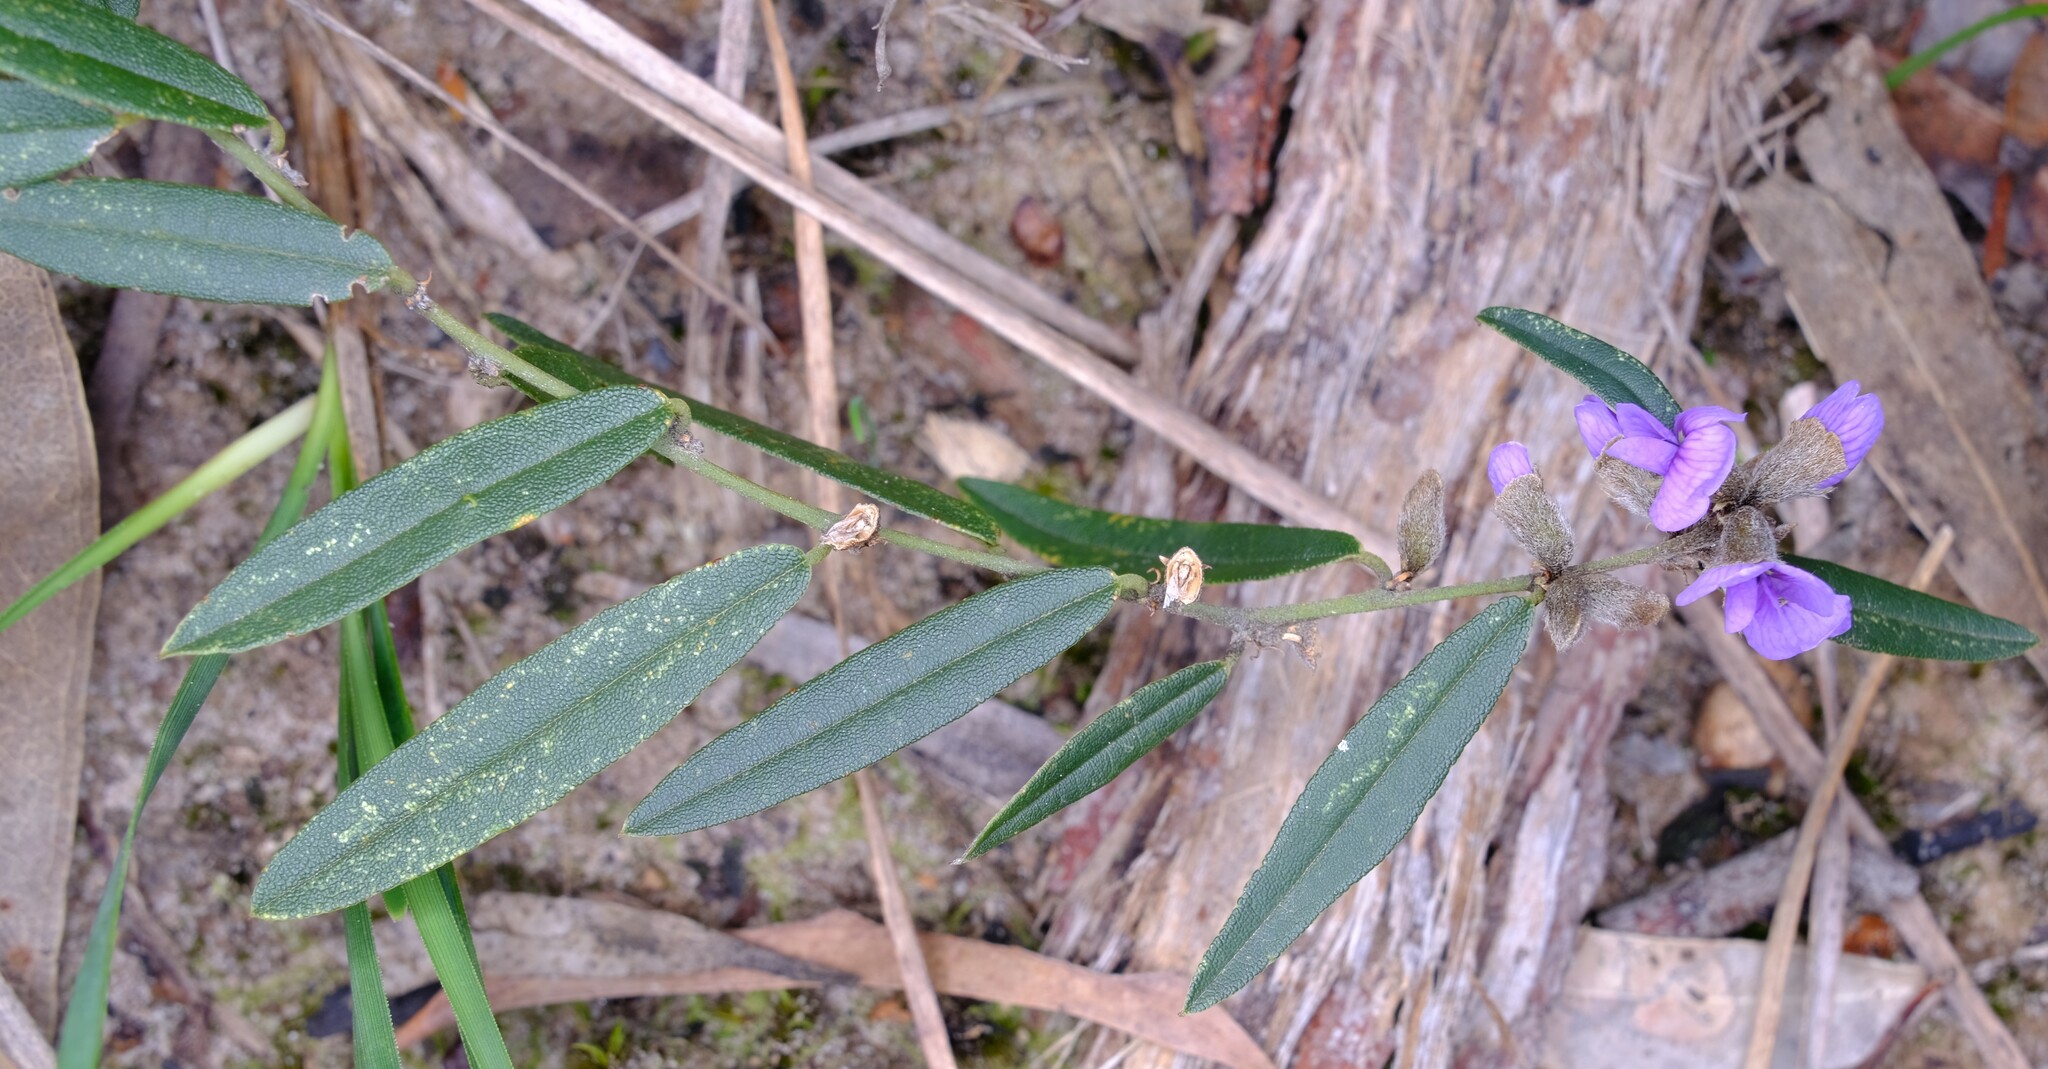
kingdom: Plantae
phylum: Tracheophyta
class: Magnoliopsida
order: Fabales
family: Fabaceae
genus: Hovea
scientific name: Hovea heterophylla
